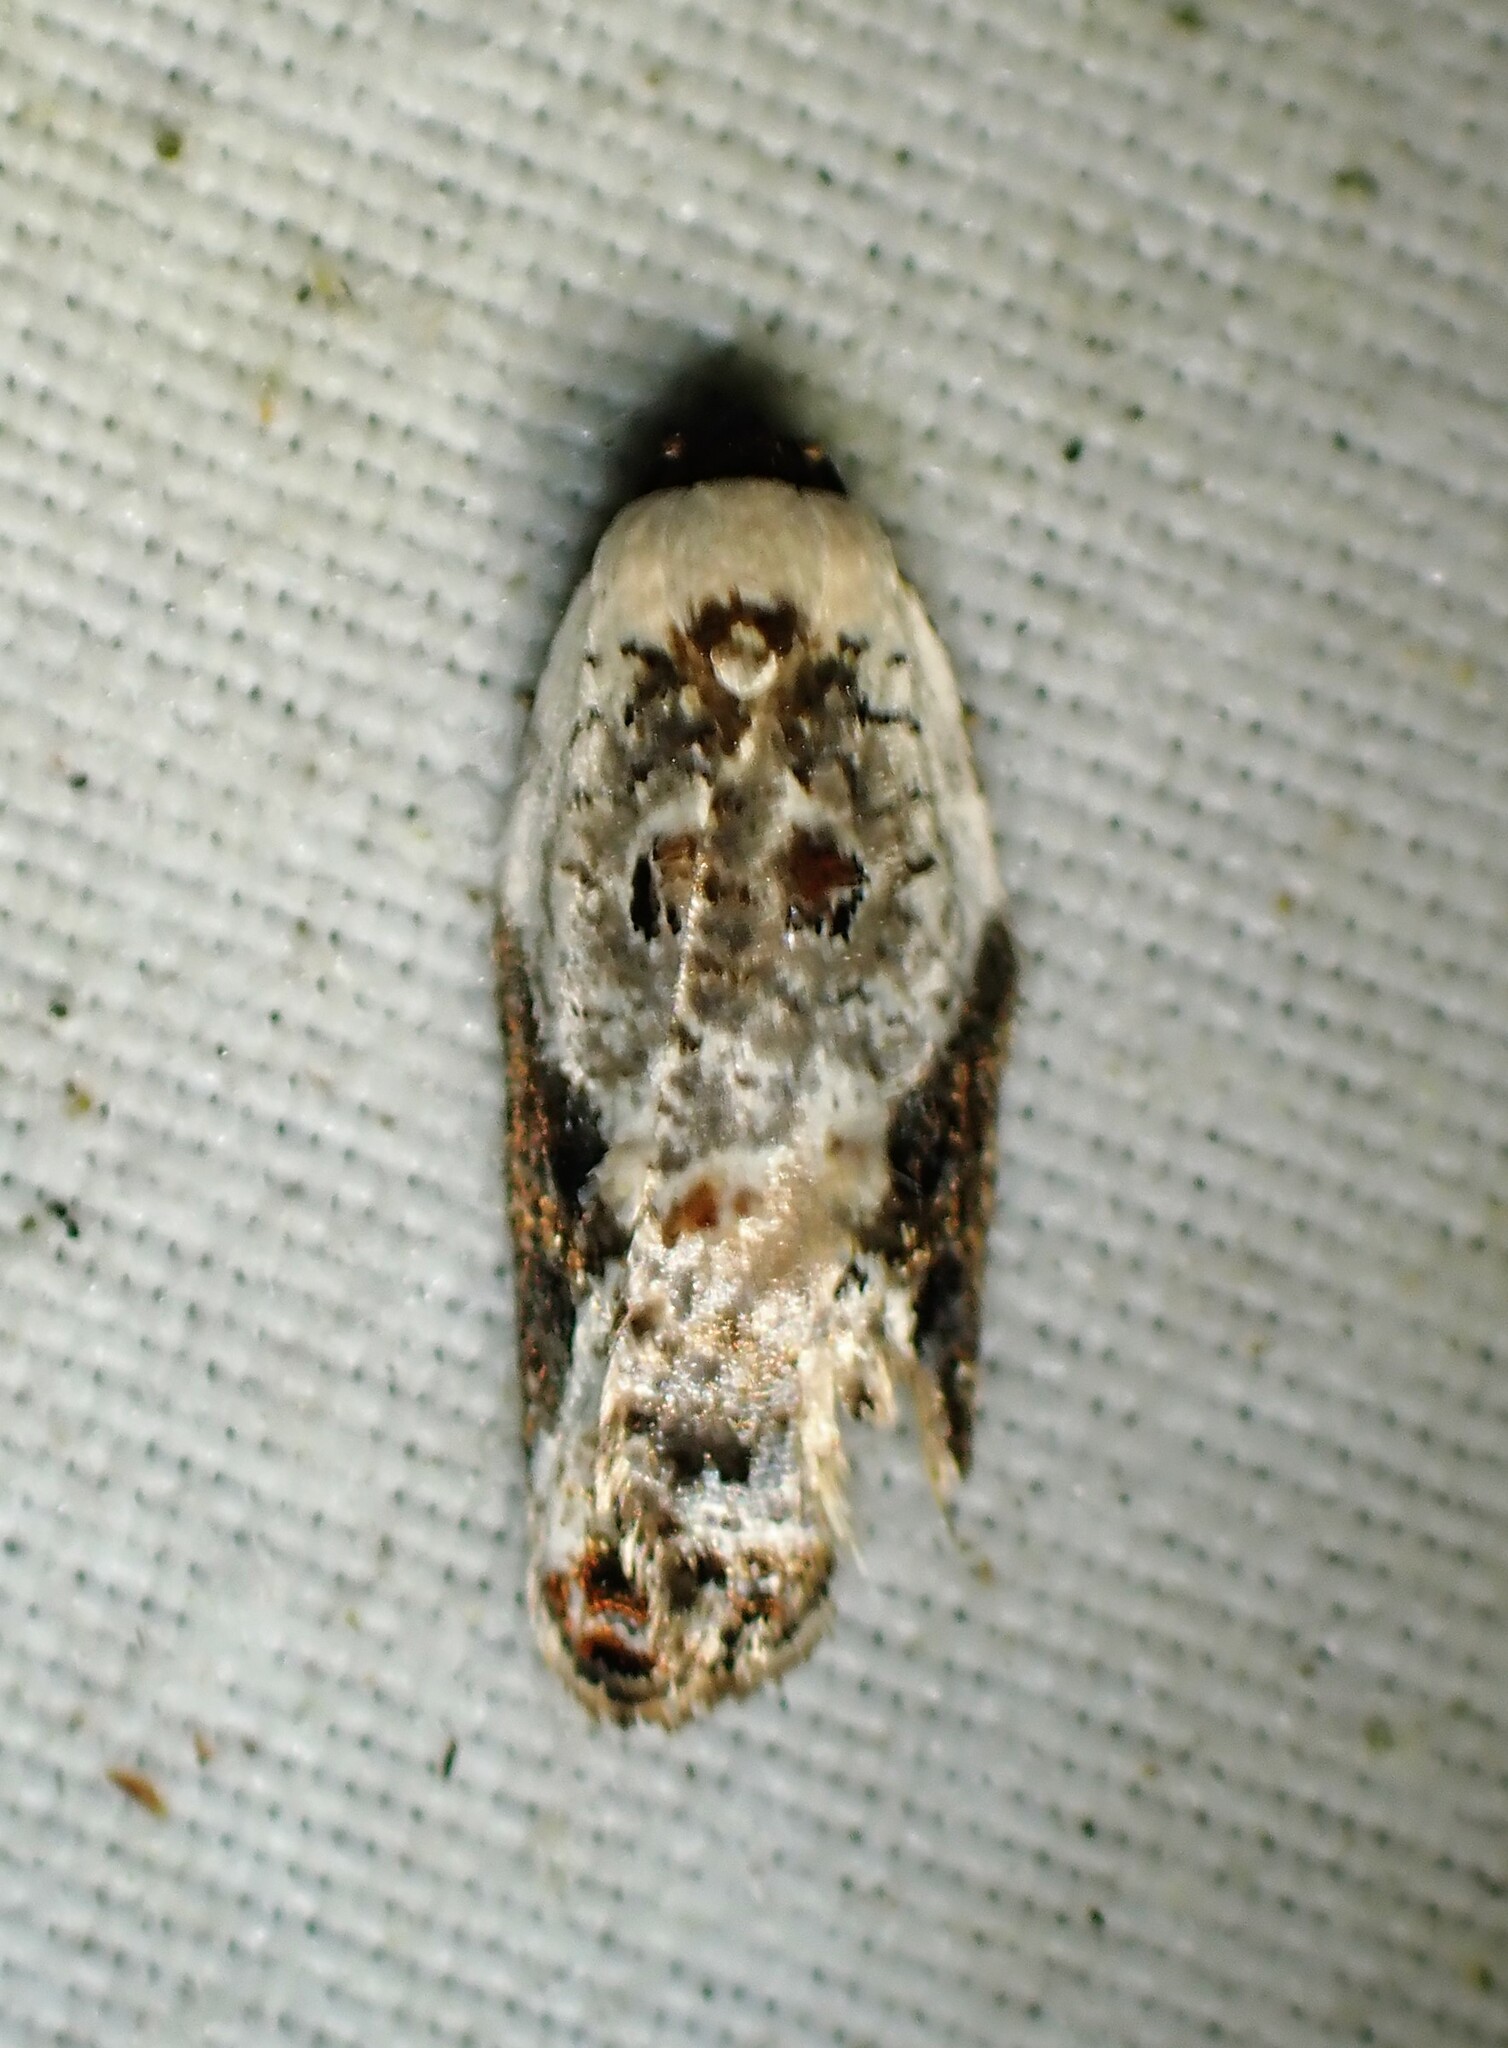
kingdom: Animalia
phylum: Arthropoda
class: Insecta
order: Lepidoptera
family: Tortricidae
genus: Acleris
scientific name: Acleris nivisellana
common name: Snowy-shouldered acleris moth
